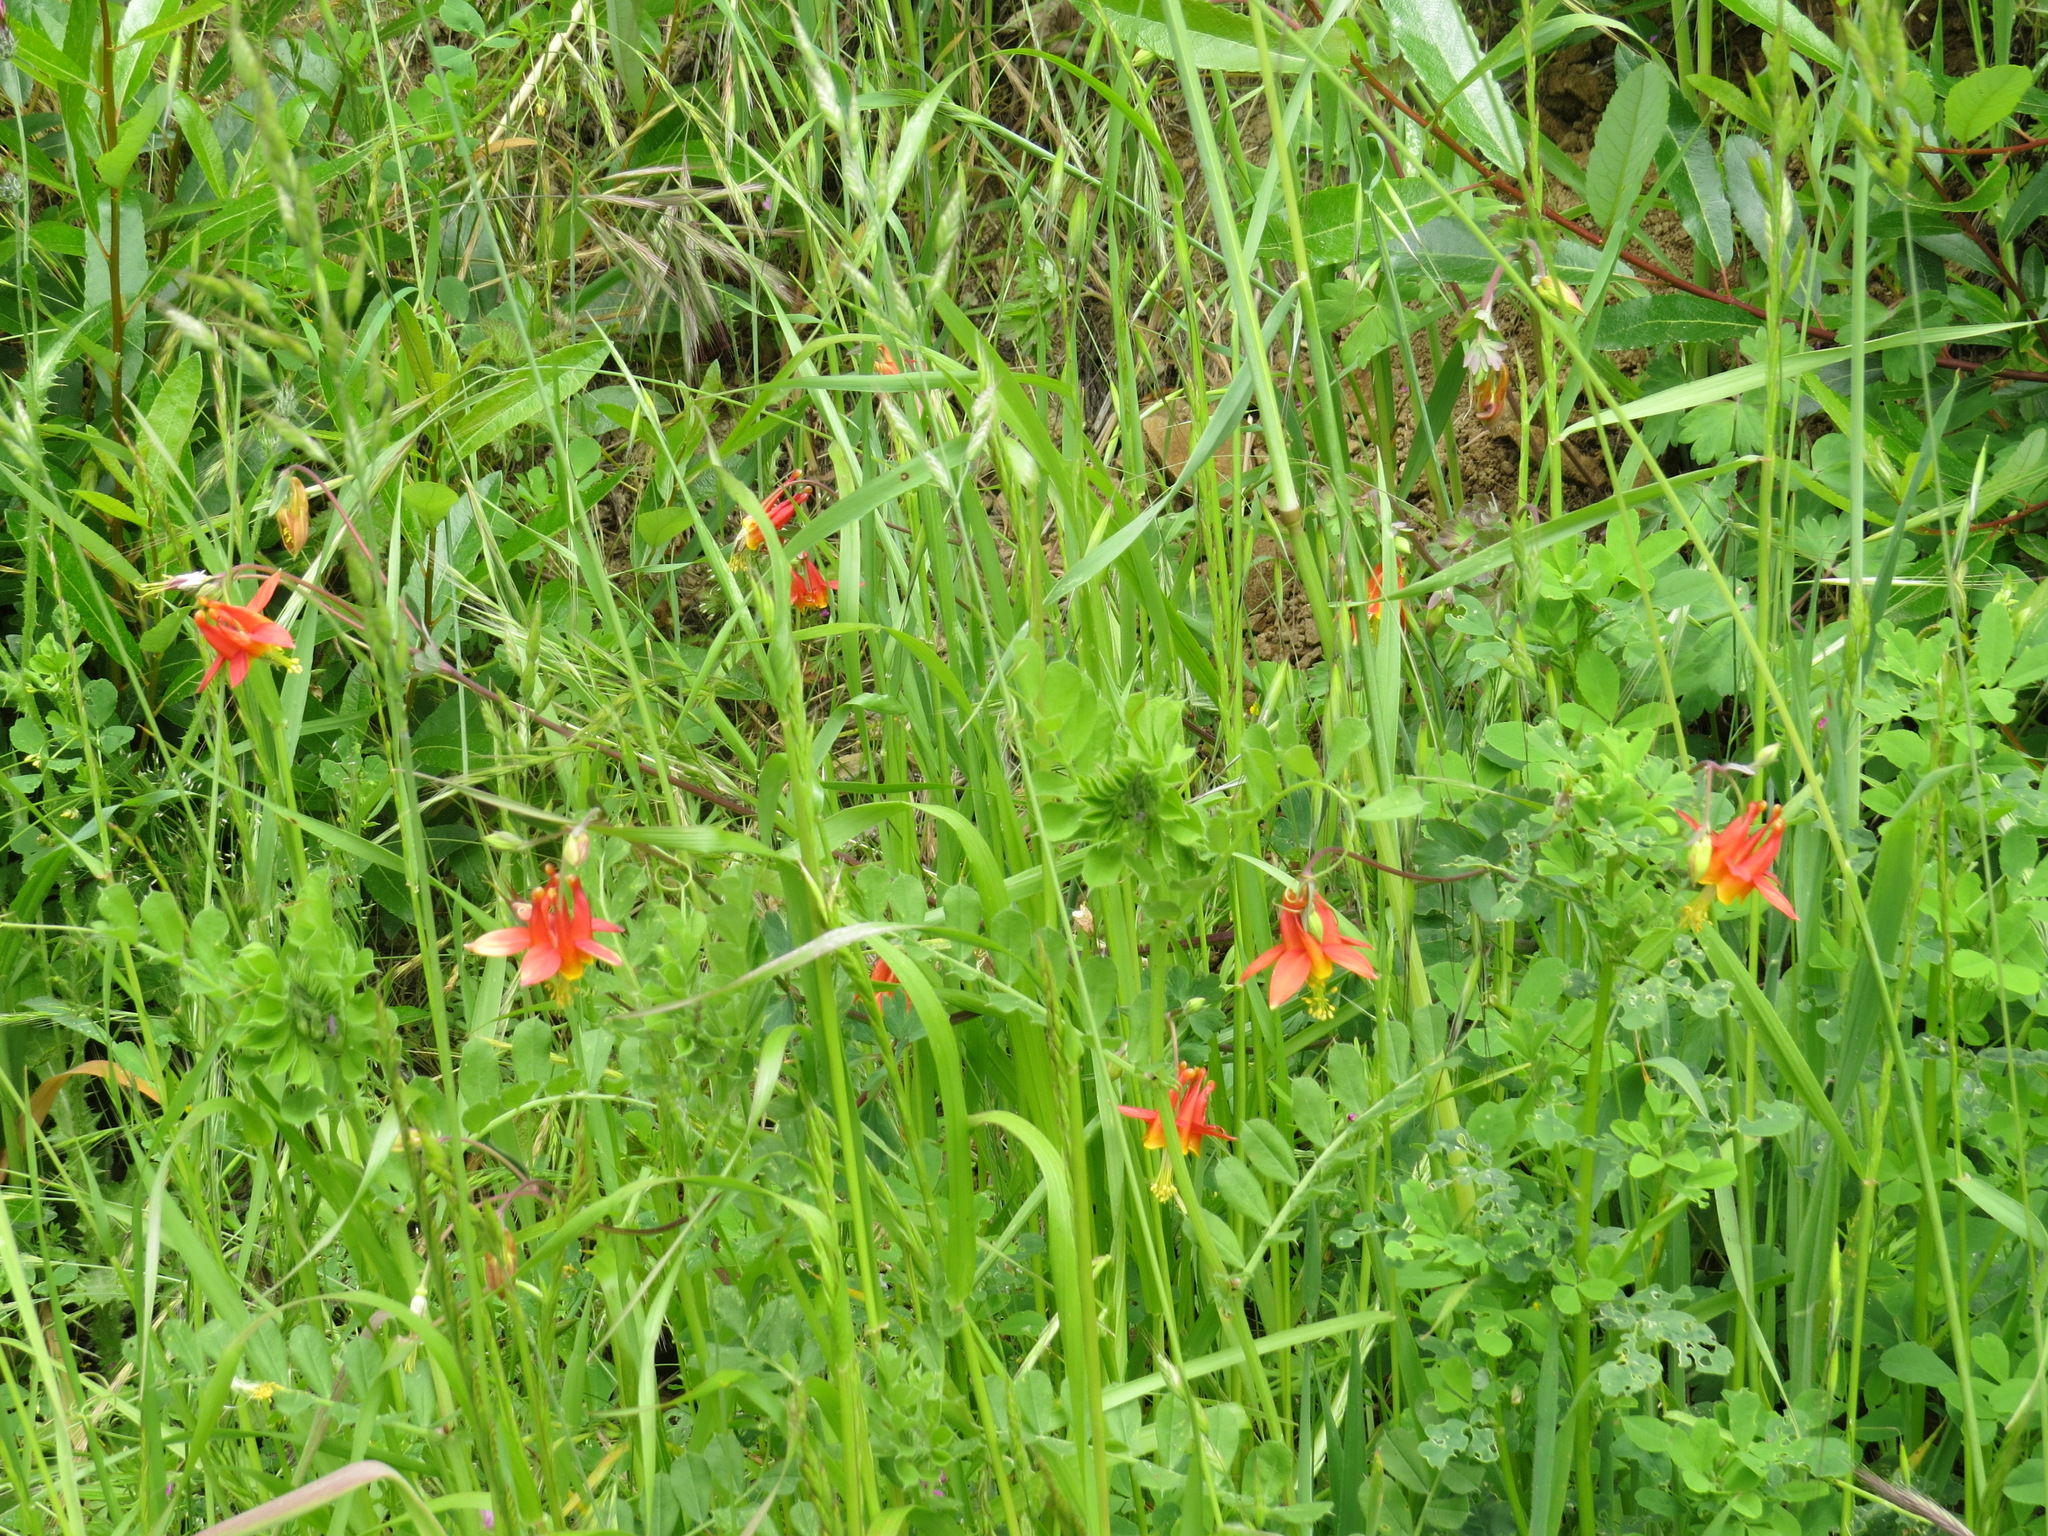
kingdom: Plantae
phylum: Tracheophyta
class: Magnoliopsida
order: Ranunculales
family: Ranunculaceae
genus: Aquilegia
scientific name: Aquilegia formosa
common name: Sitka columbine
